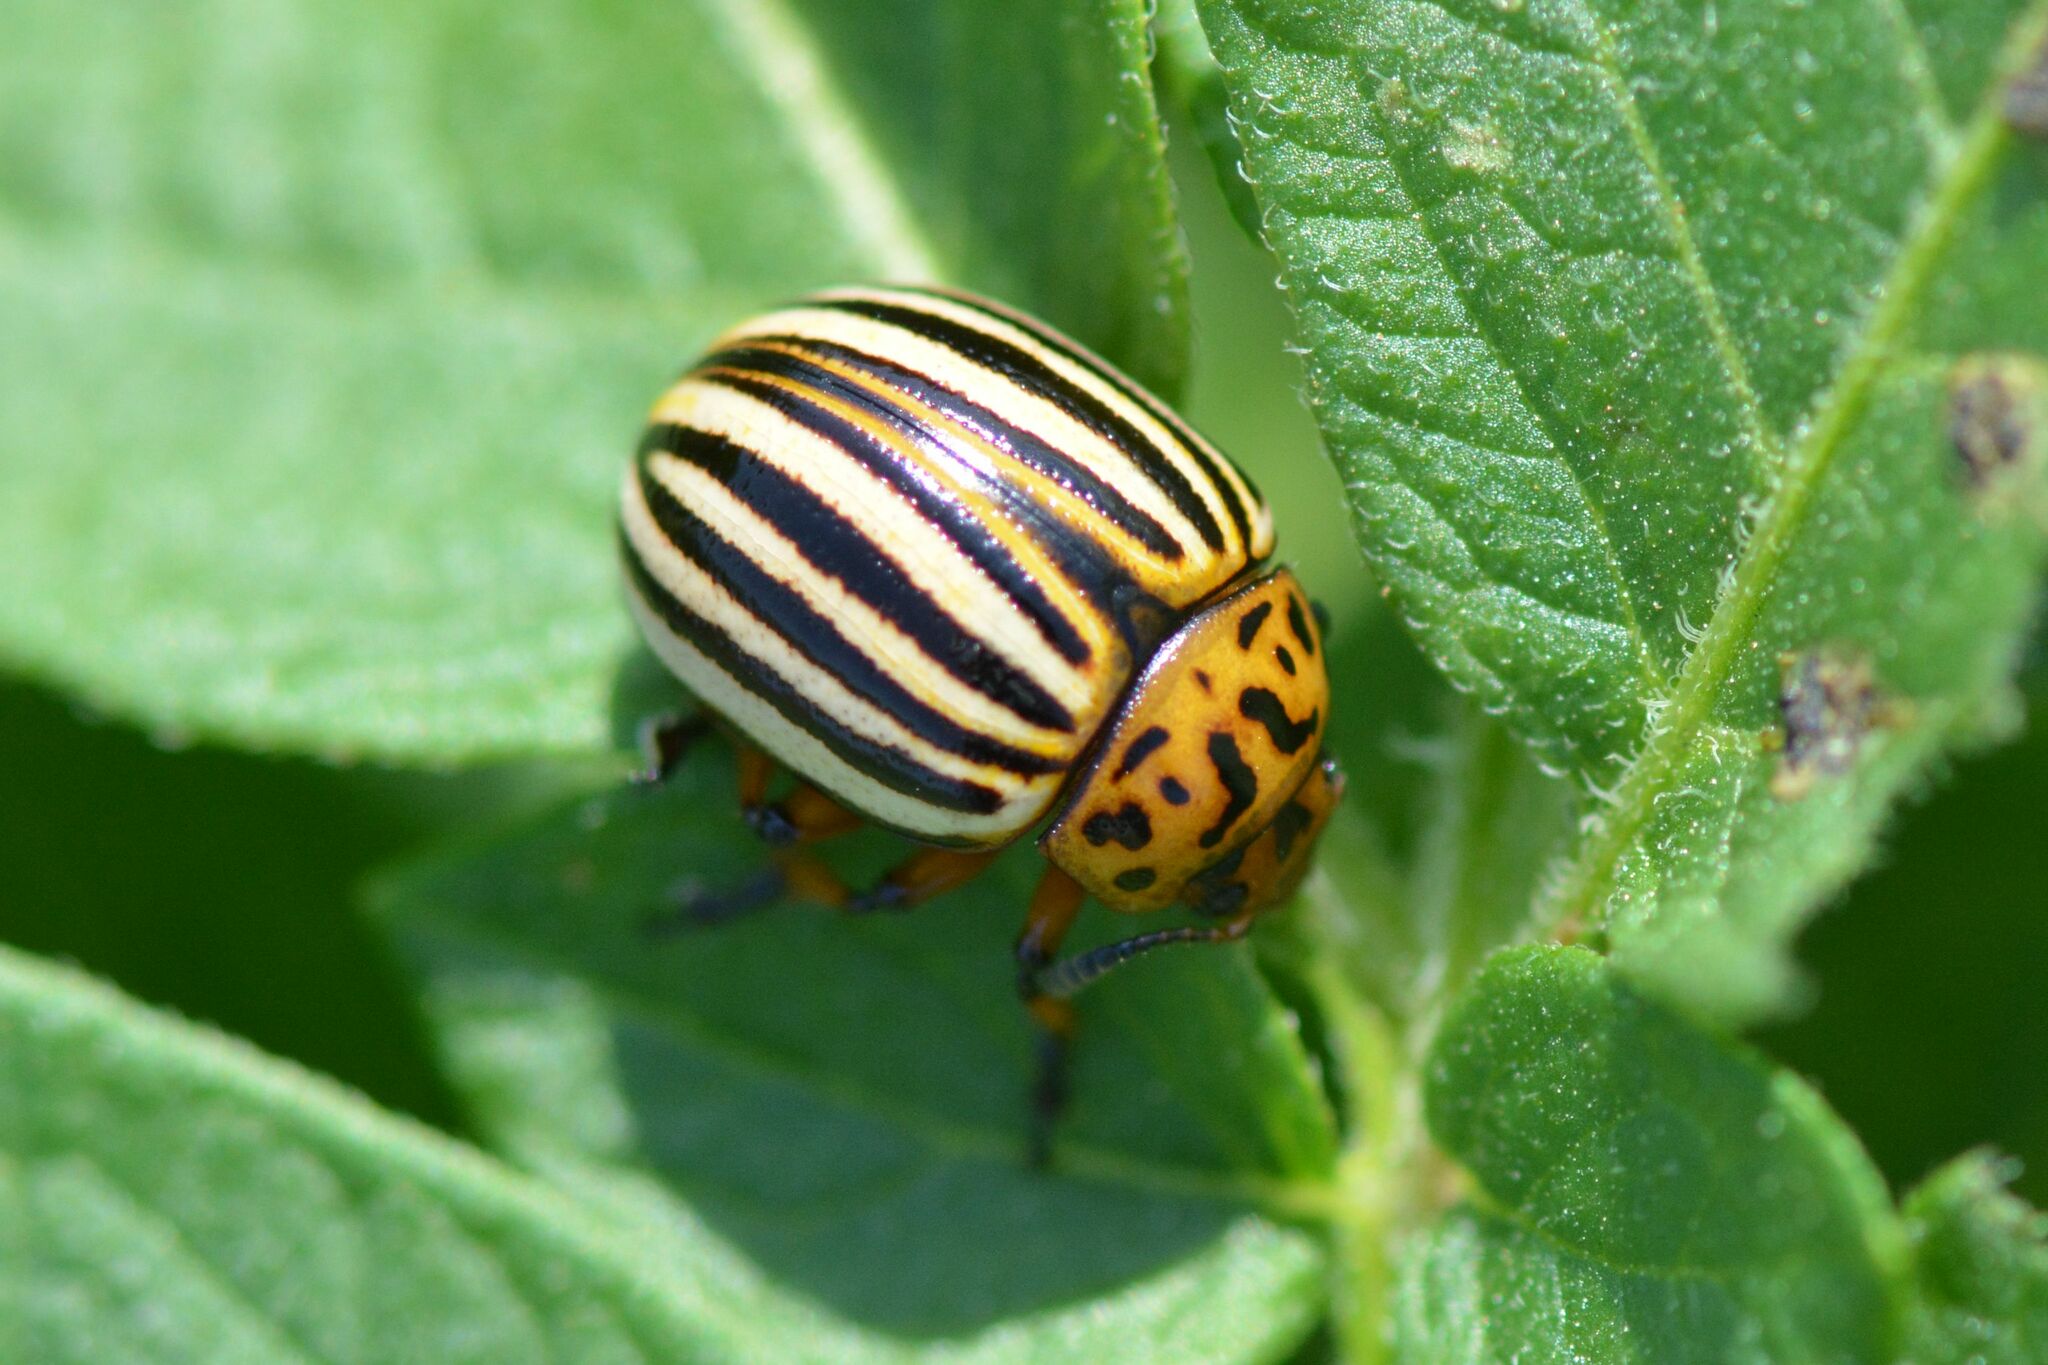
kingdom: Animalia
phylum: Arthropoda
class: Insecta
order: Coleoptera
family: Chrysomelidae
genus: Leptinotarsa
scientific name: Leptinotarsa decemlineata
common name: Colorado potato beetle
